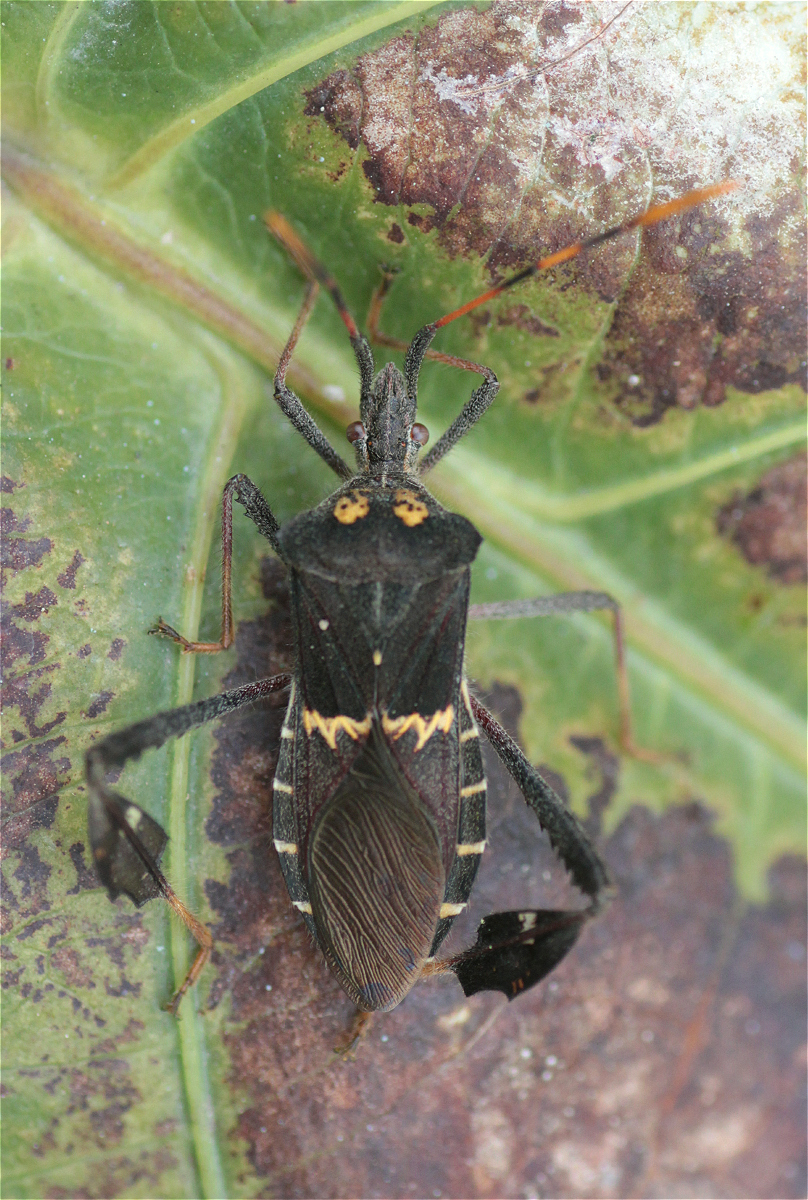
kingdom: Animalia
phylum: Arthropoda
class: Insecta
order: Hemiptera
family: Coreidae
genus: Leptoglossus
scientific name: Leptoglossus zonatus
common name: Large-legged bug
